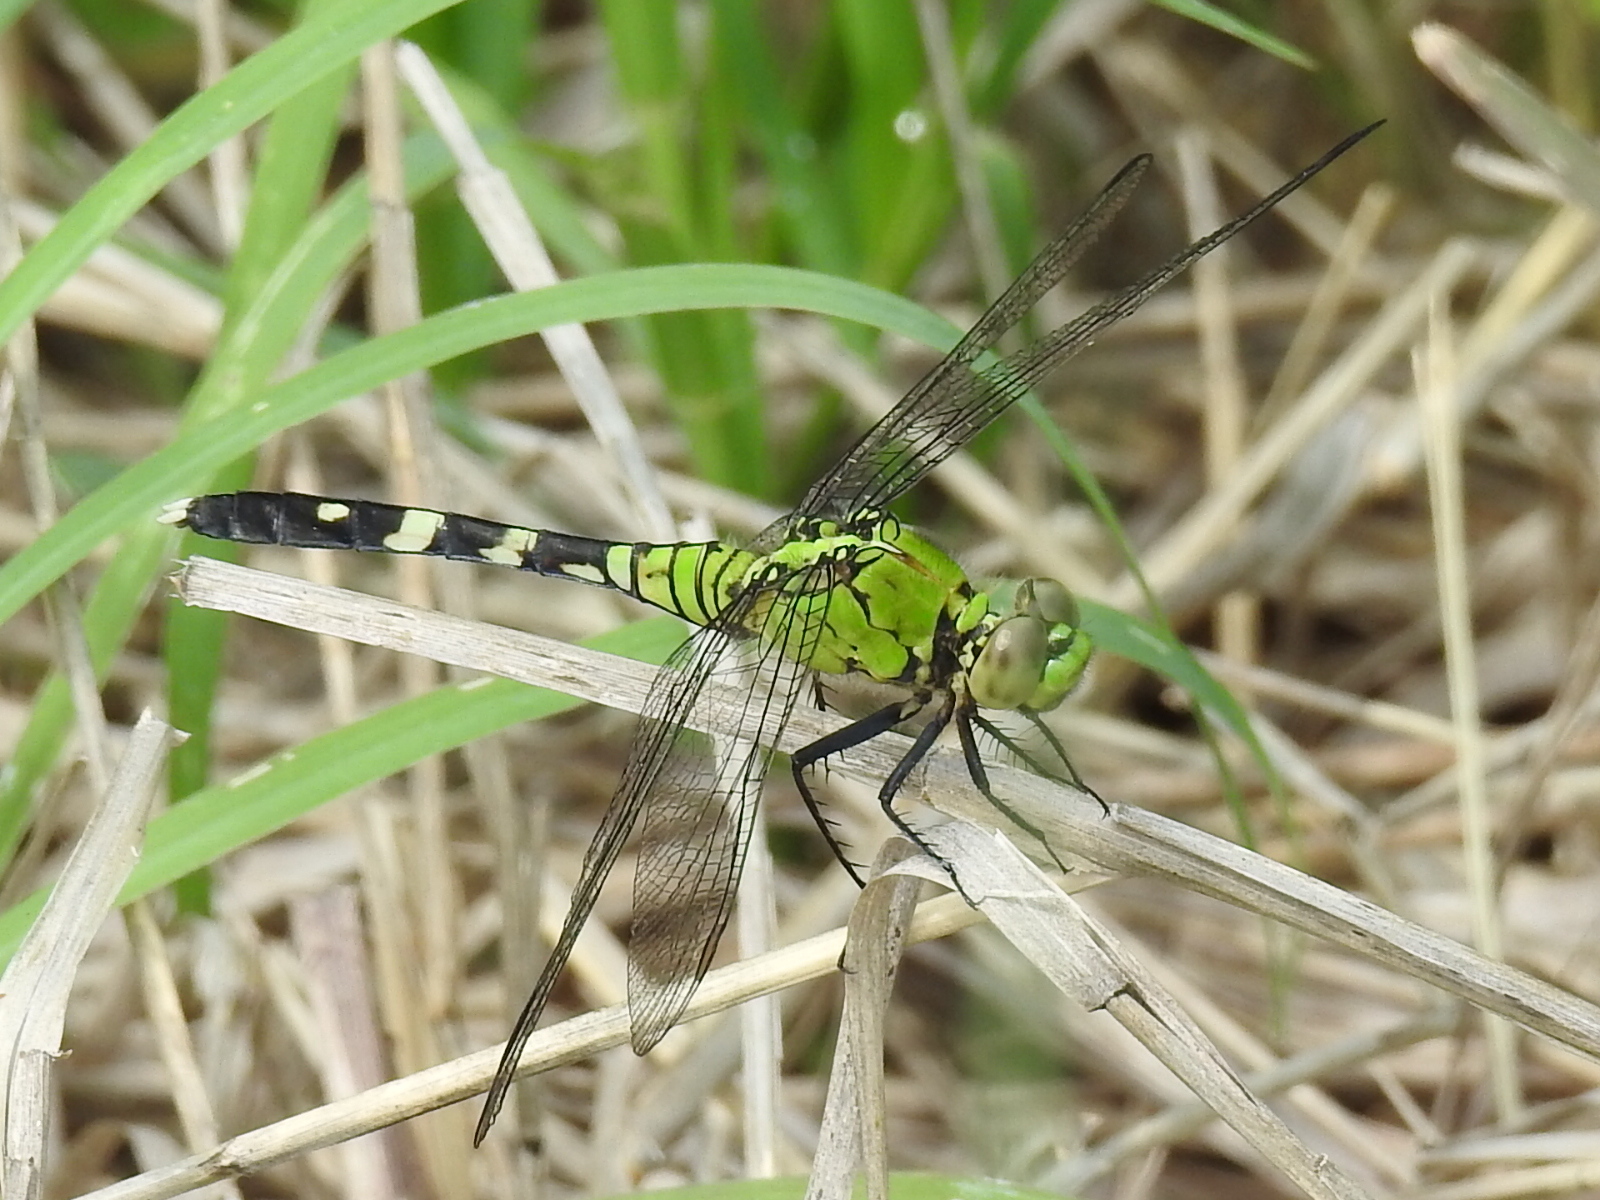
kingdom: Animalia
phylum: Arthropoda
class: Insecta
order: Odonata
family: Libellulidae
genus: Erythemis
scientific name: Erythemis simplicicollis
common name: Eastern pondhawk
